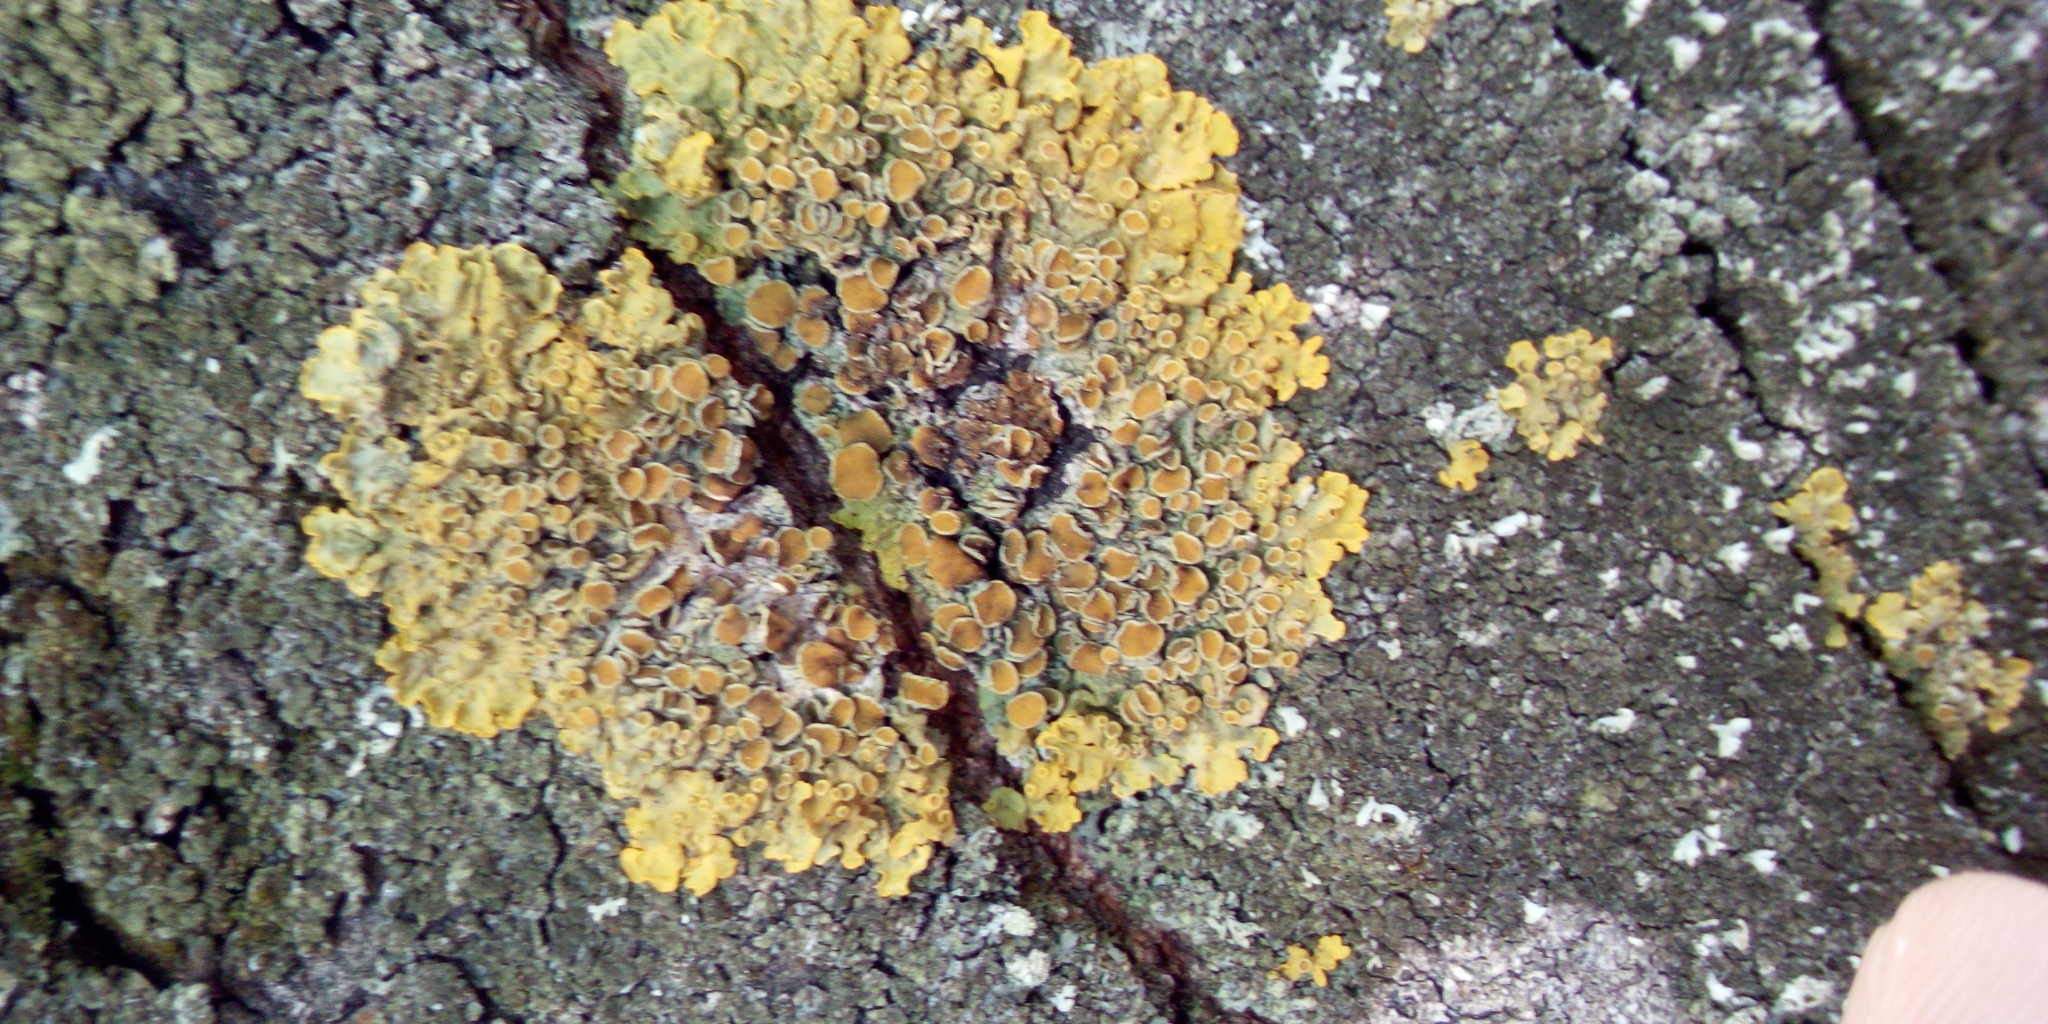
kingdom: Fungi
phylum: Ascomycota
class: Lecanoromycetes
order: Teloschistales
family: Teloschistaceae
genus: Xanthoria
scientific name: Xanthoria parietina
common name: Common orange lichen
